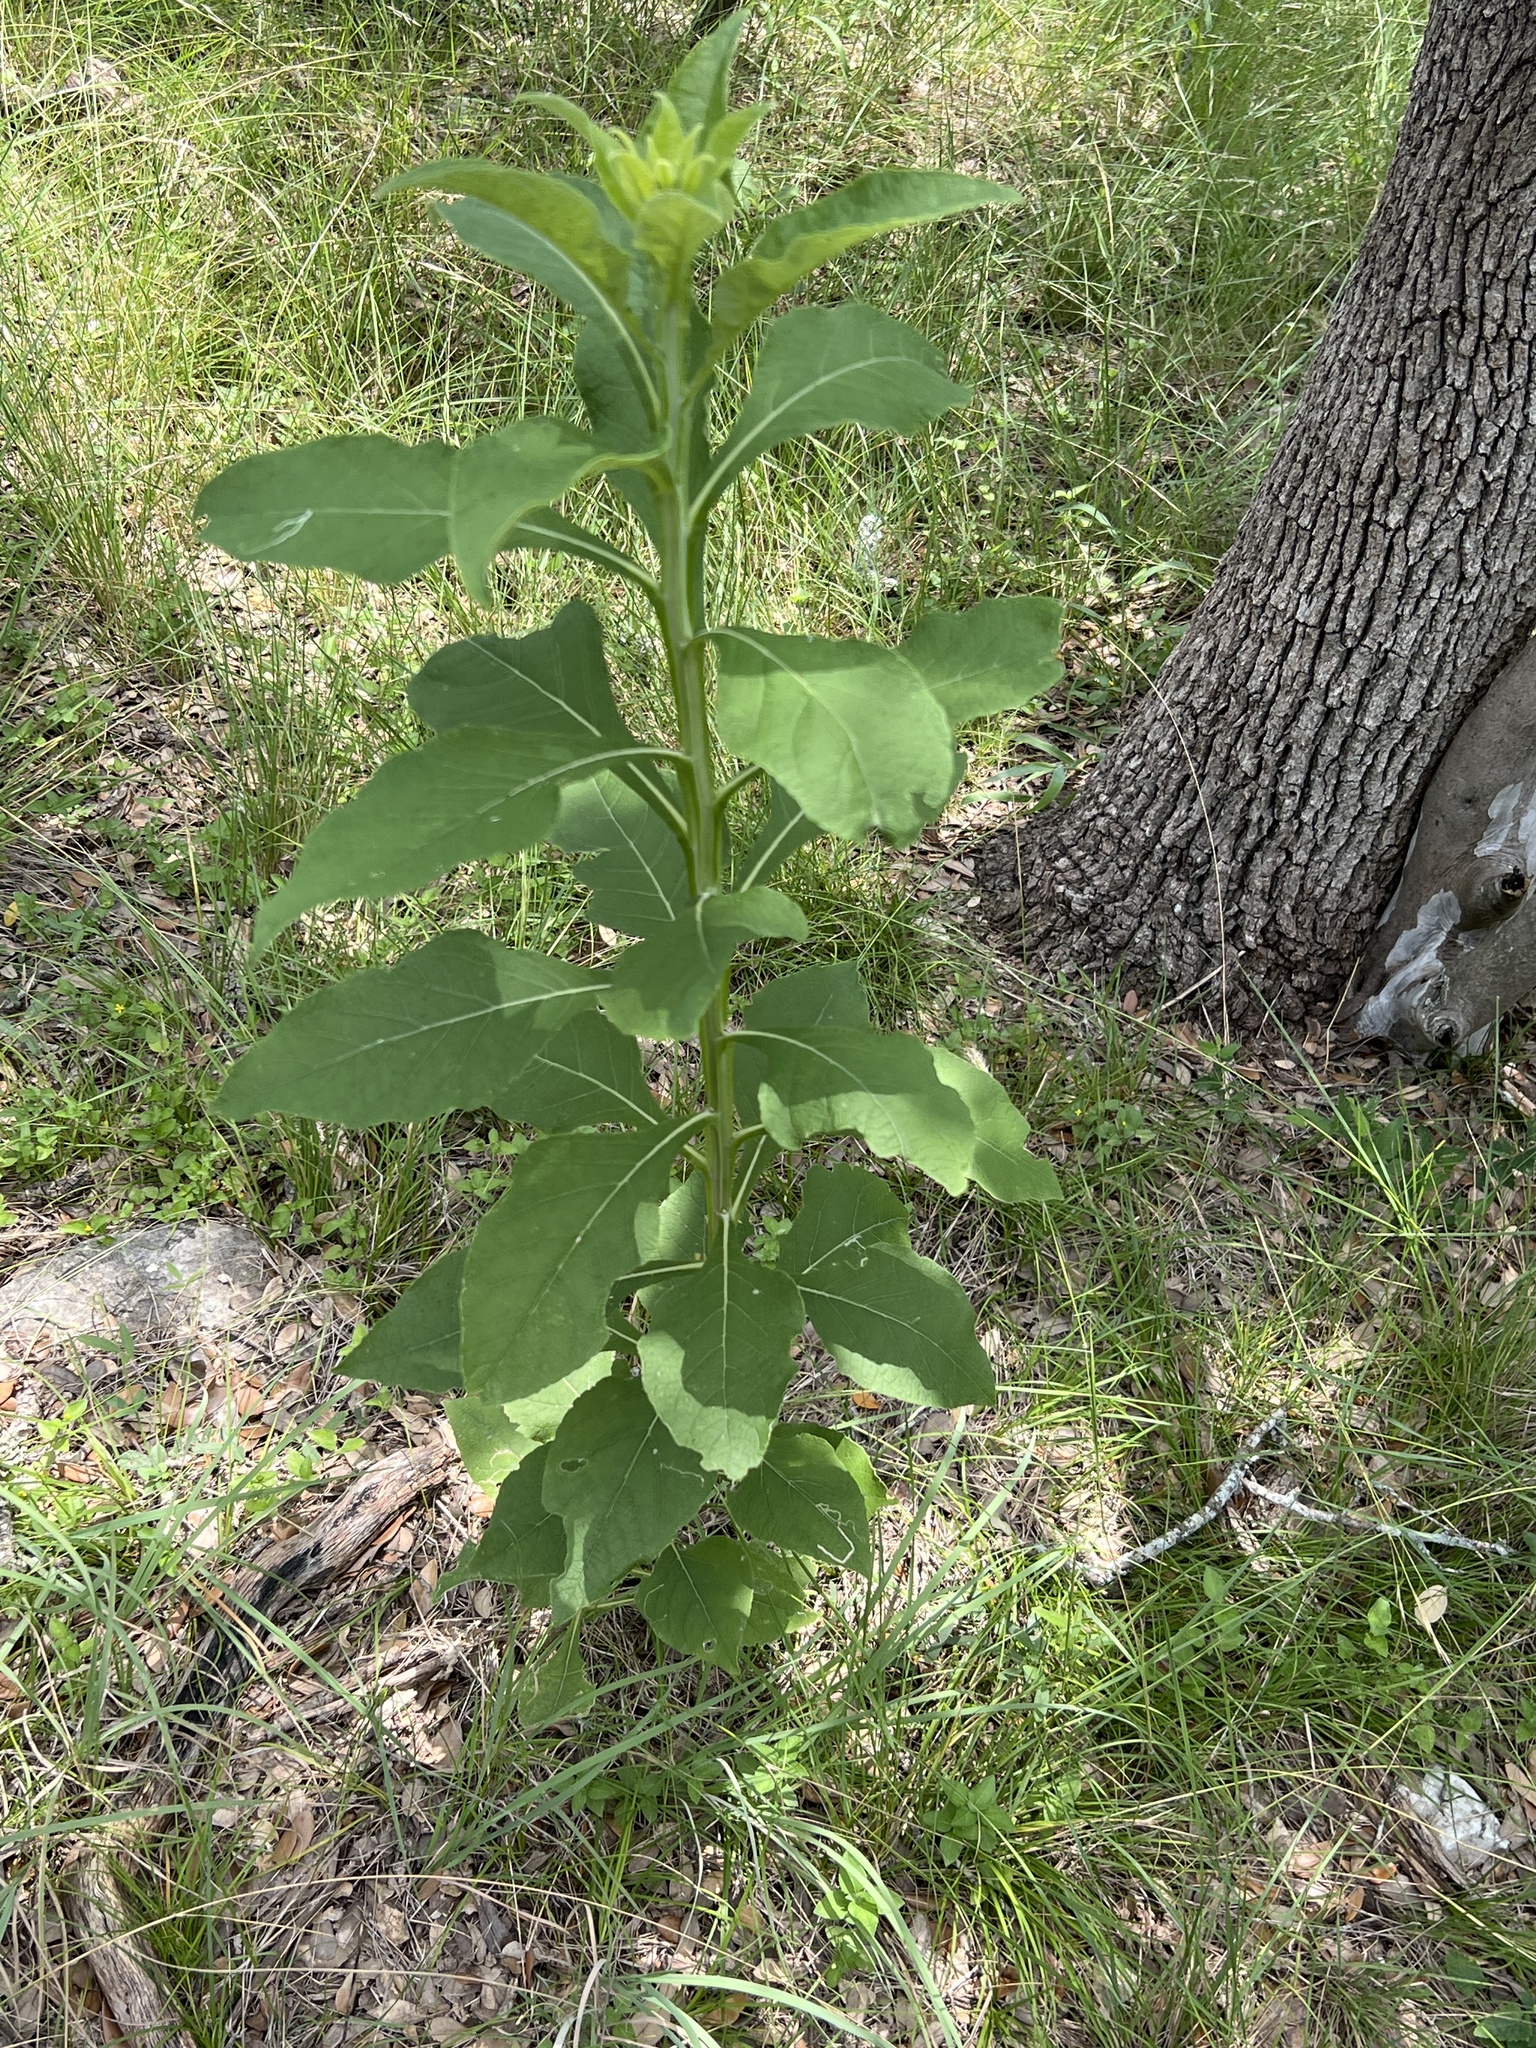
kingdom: Plantae
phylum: Tracheophyta
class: Magnoliopsida
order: Asterales
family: Asteraceae
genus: Verbesina
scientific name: Verbesina virginica
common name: Frostweed
